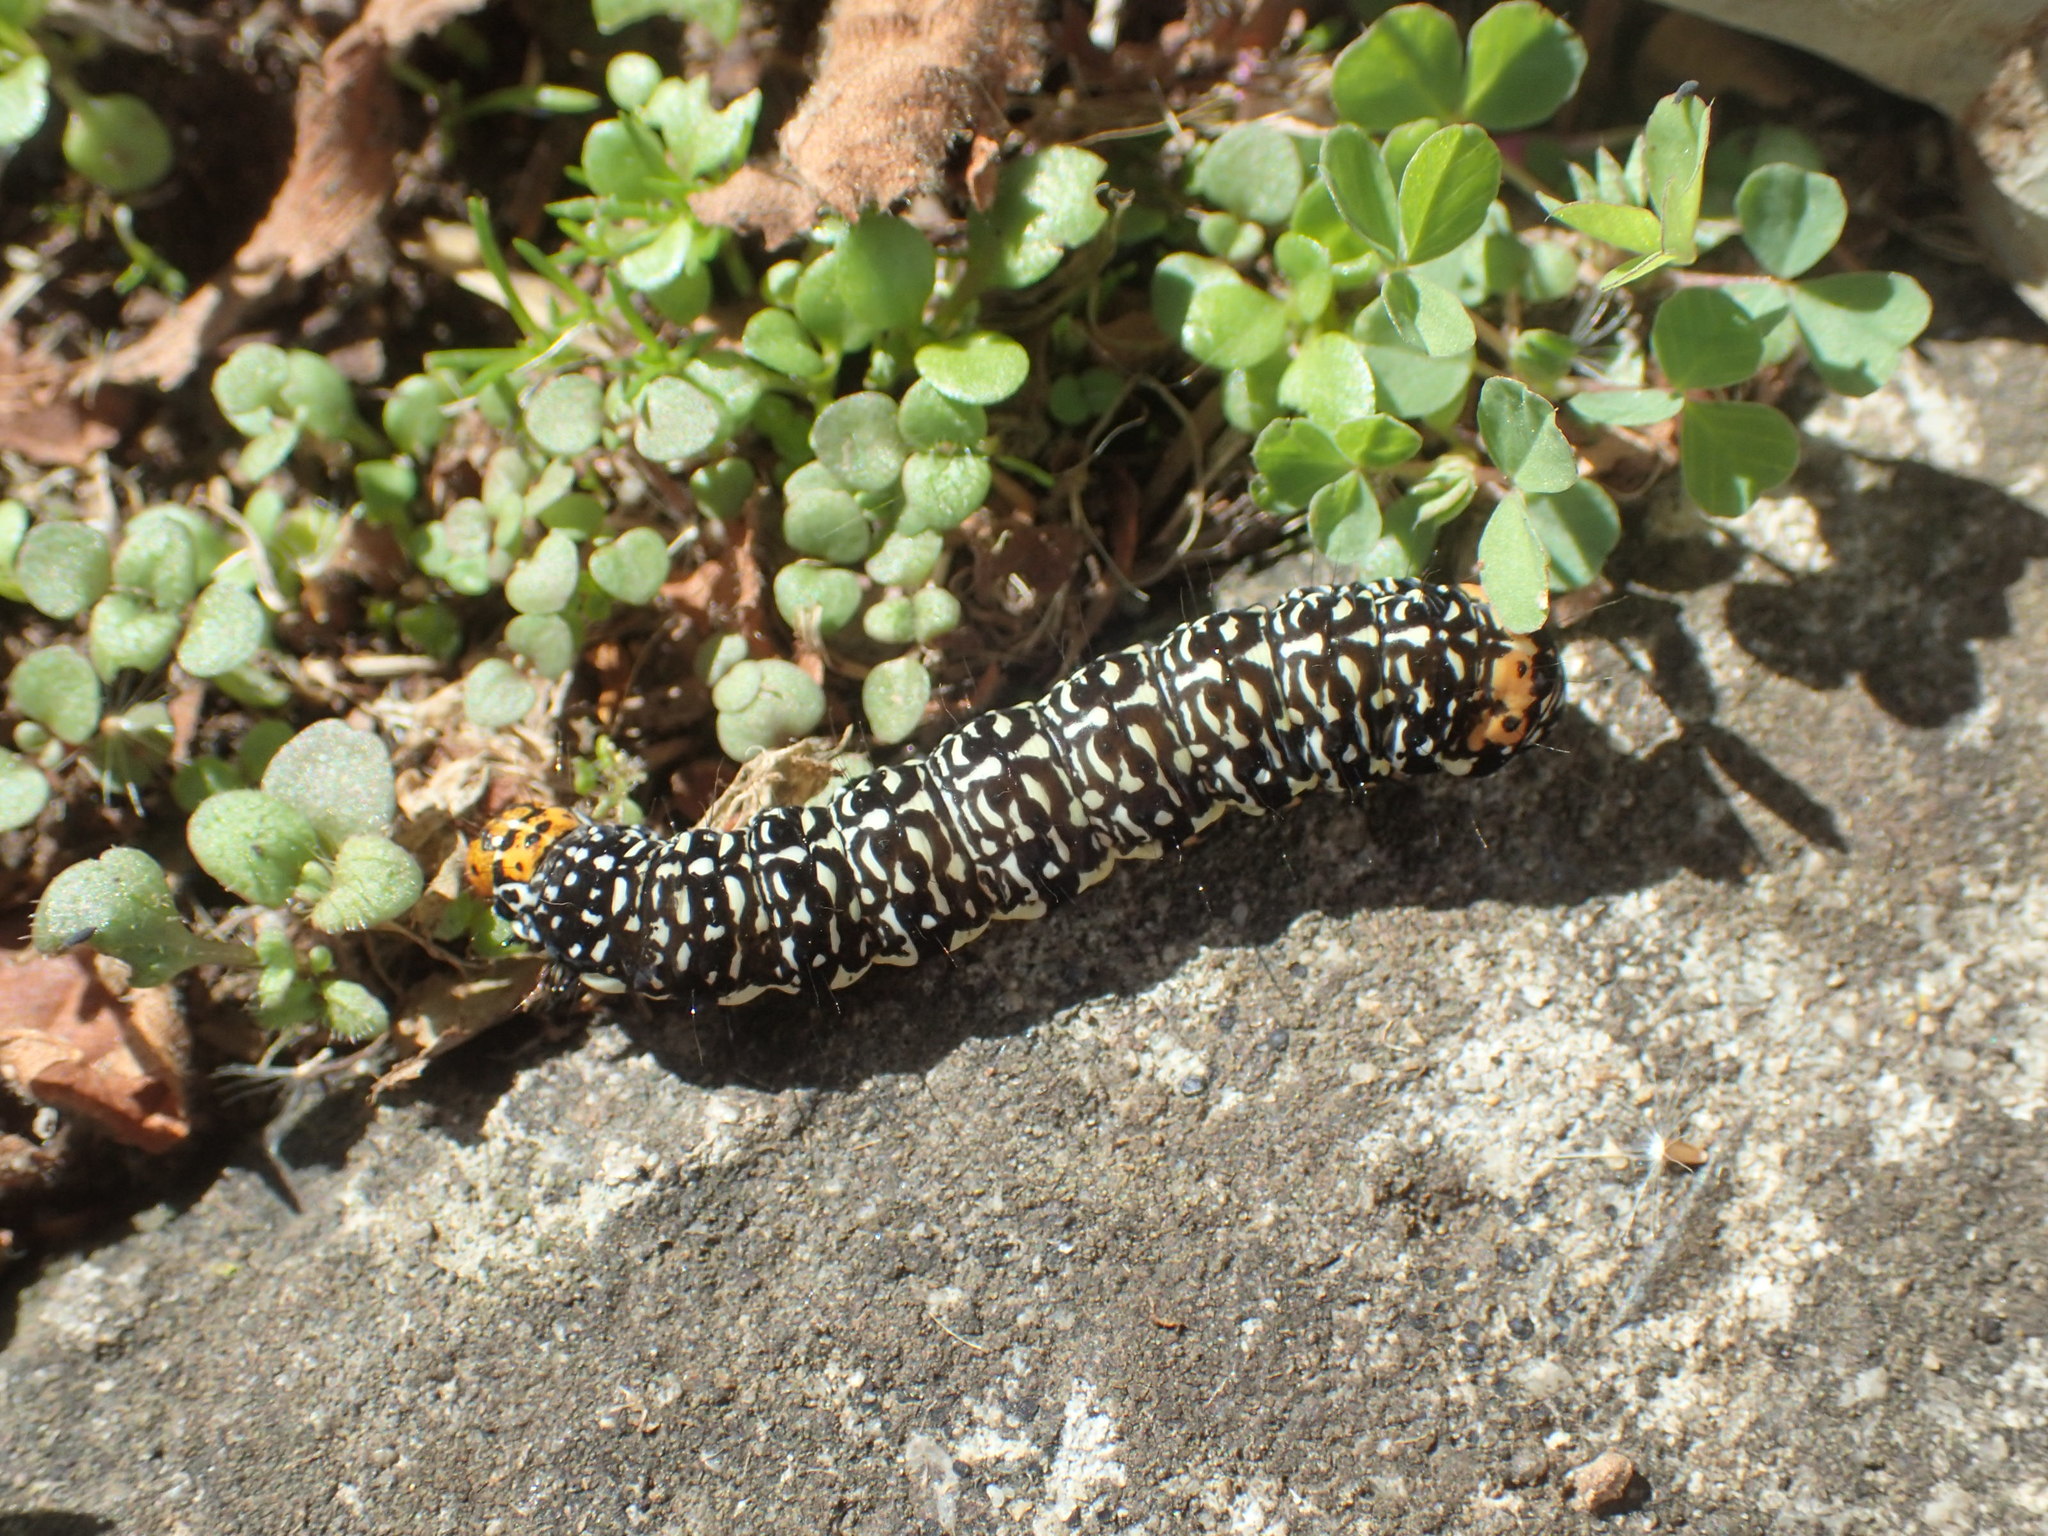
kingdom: Animalia
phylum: Arthropoda
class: Insecta
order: Lepidoptera
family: Noctuidae
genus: Phalaenoides
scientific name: Phalaenoides tristifica
